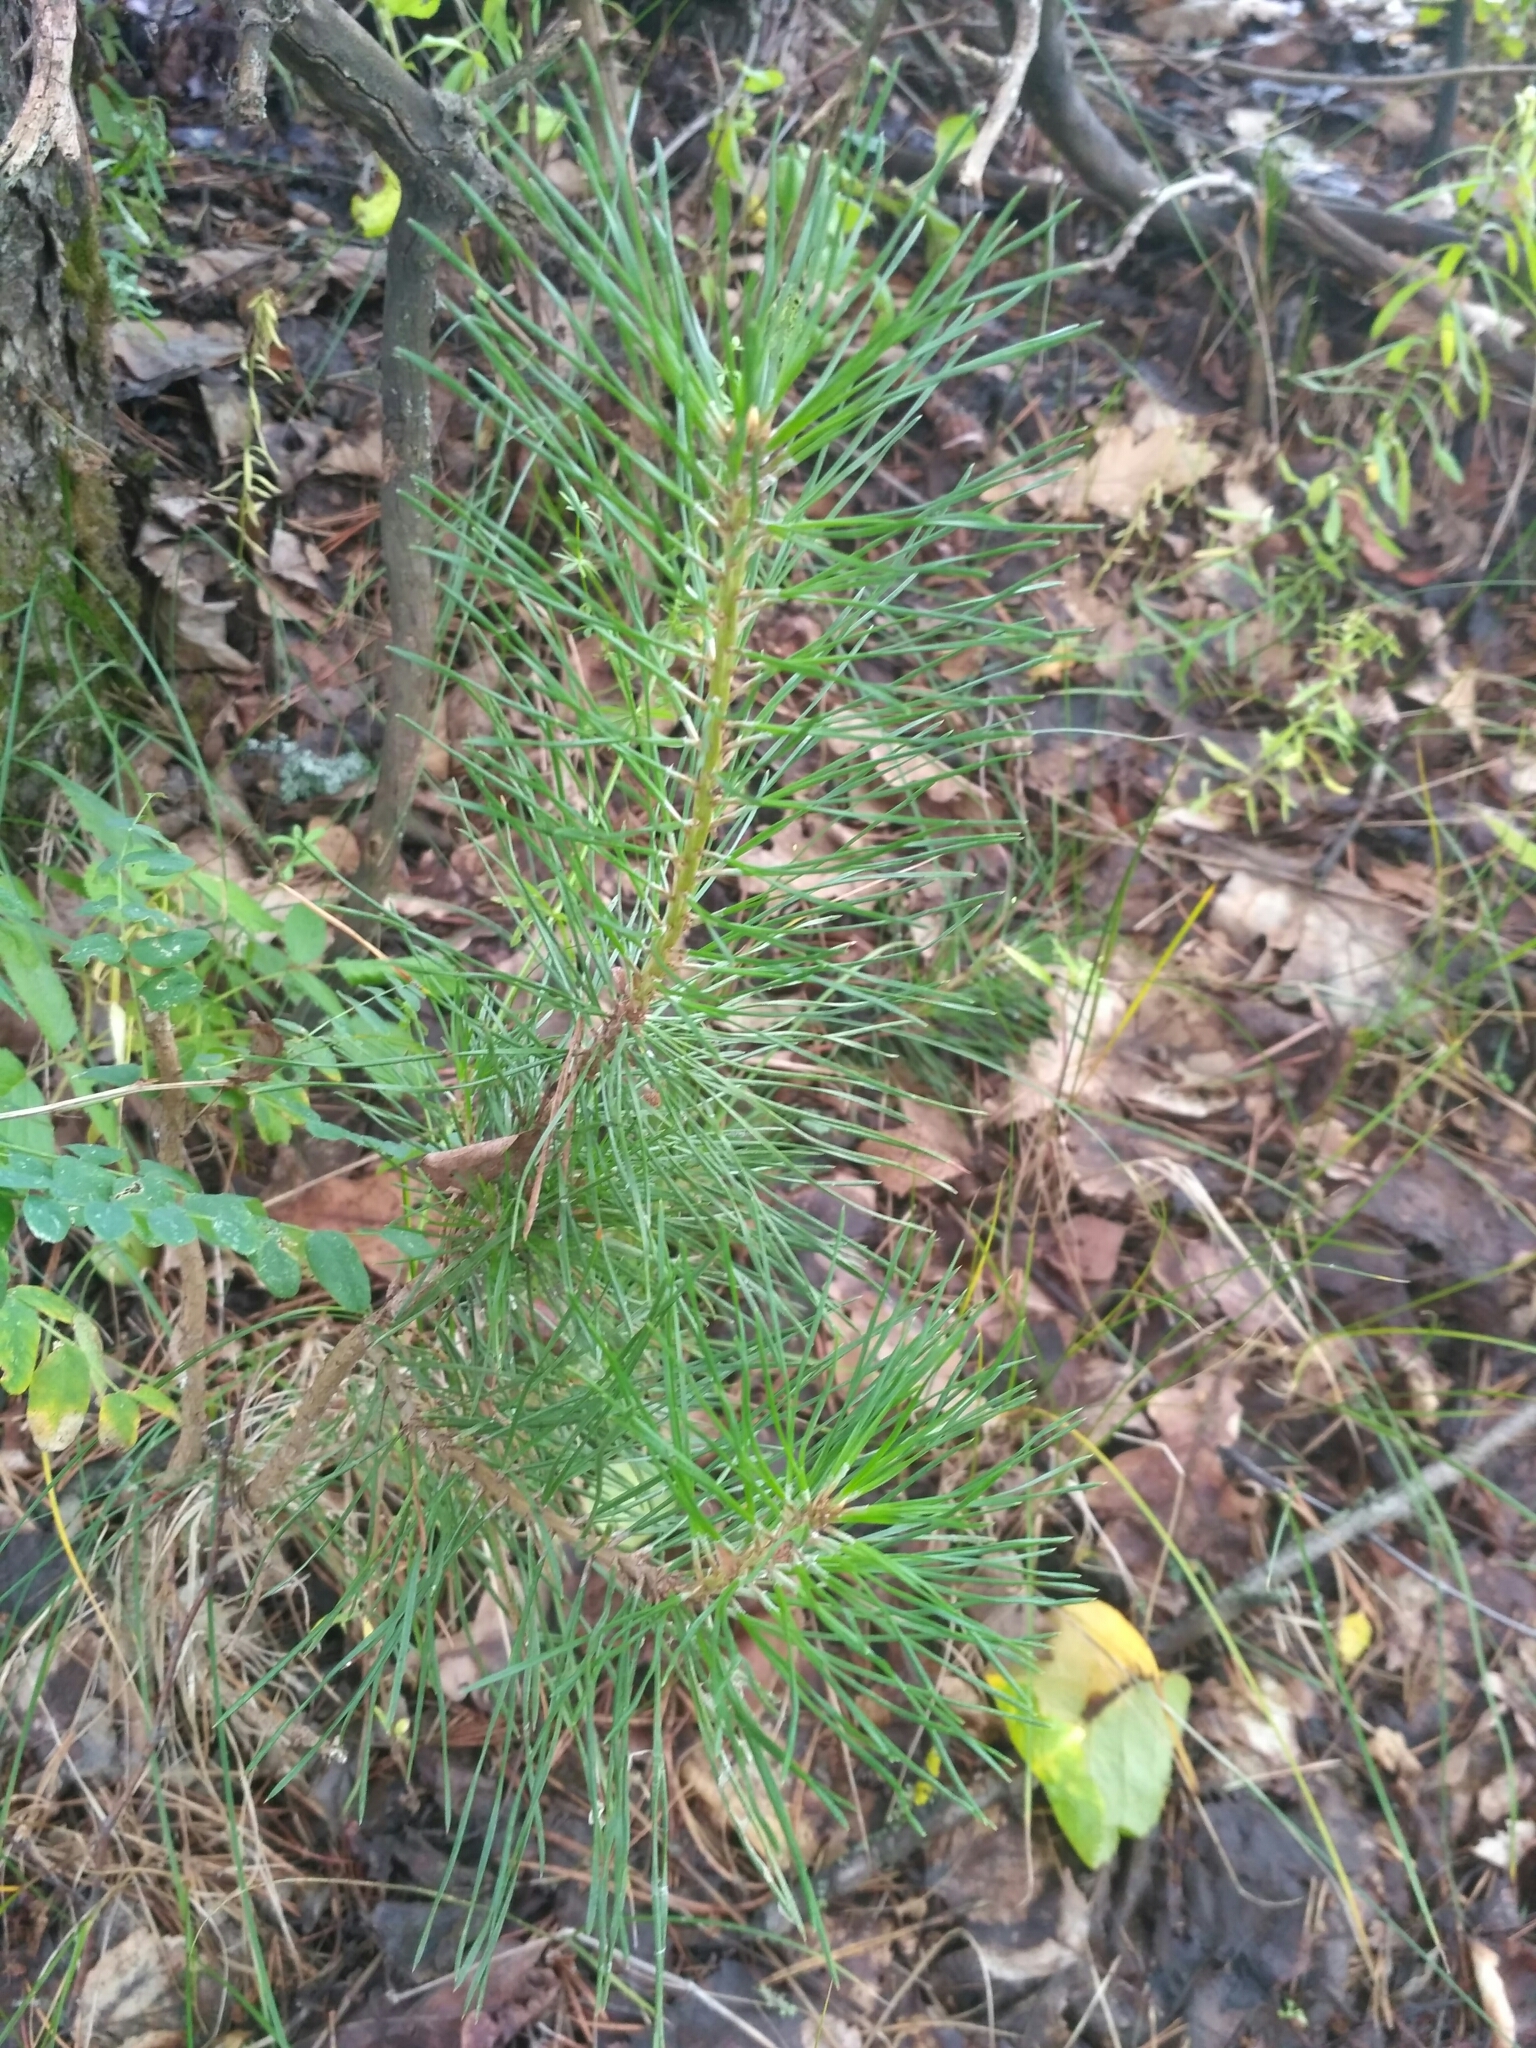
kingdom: Plantae
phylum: Tracheophyta
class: Pinopsida
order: Pinales
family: Pinaceae
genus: Pinus
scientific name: Pinus sylvestris
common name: Scots pine
